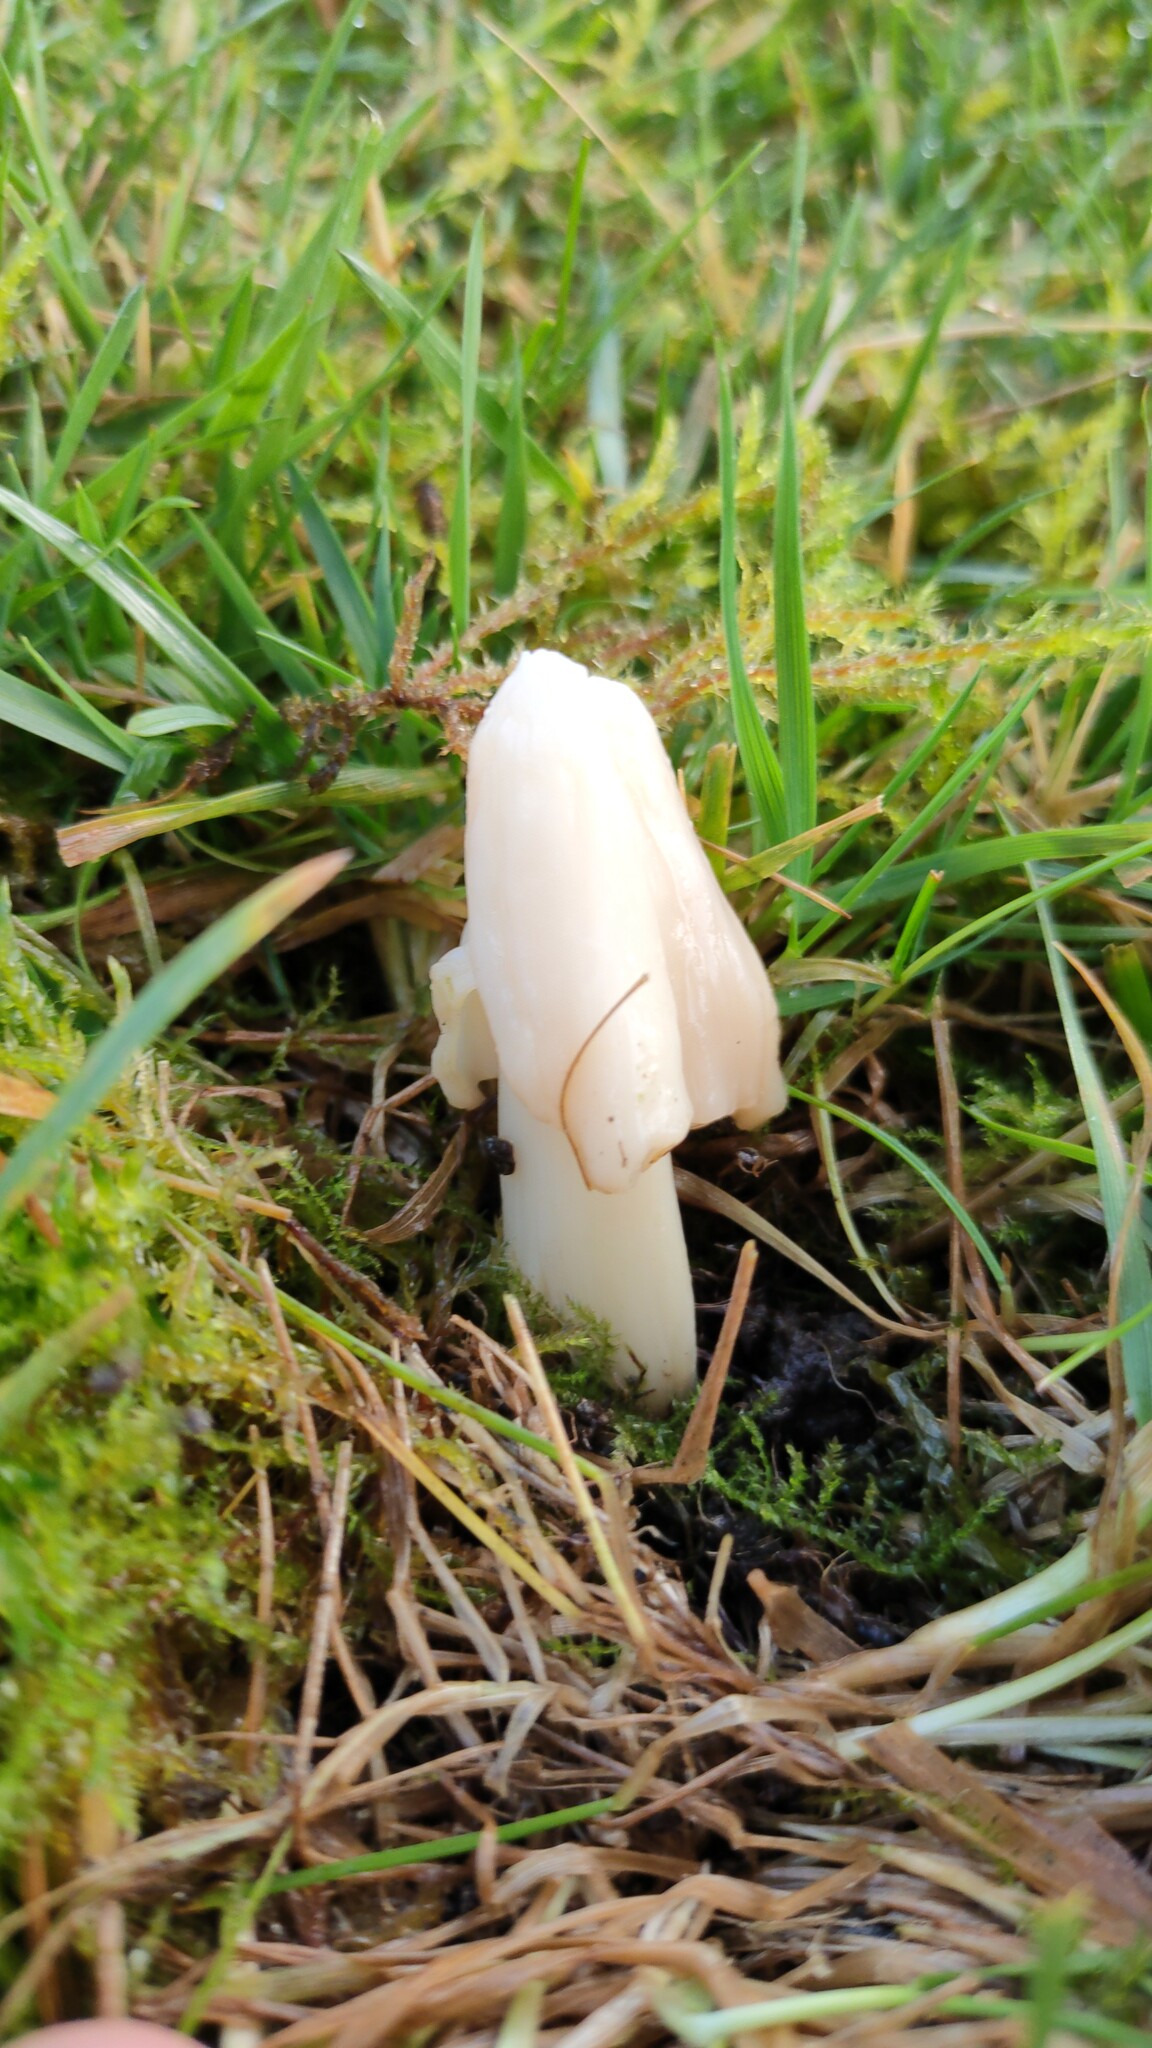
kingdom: Fungi
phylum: Basidiomycota
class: Agaricomycetes
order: Agaricales
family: Hygrophoraceae
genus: Porpolomopsis
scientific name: Porpolomopsis calyptriformis
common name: Pink waxcap
